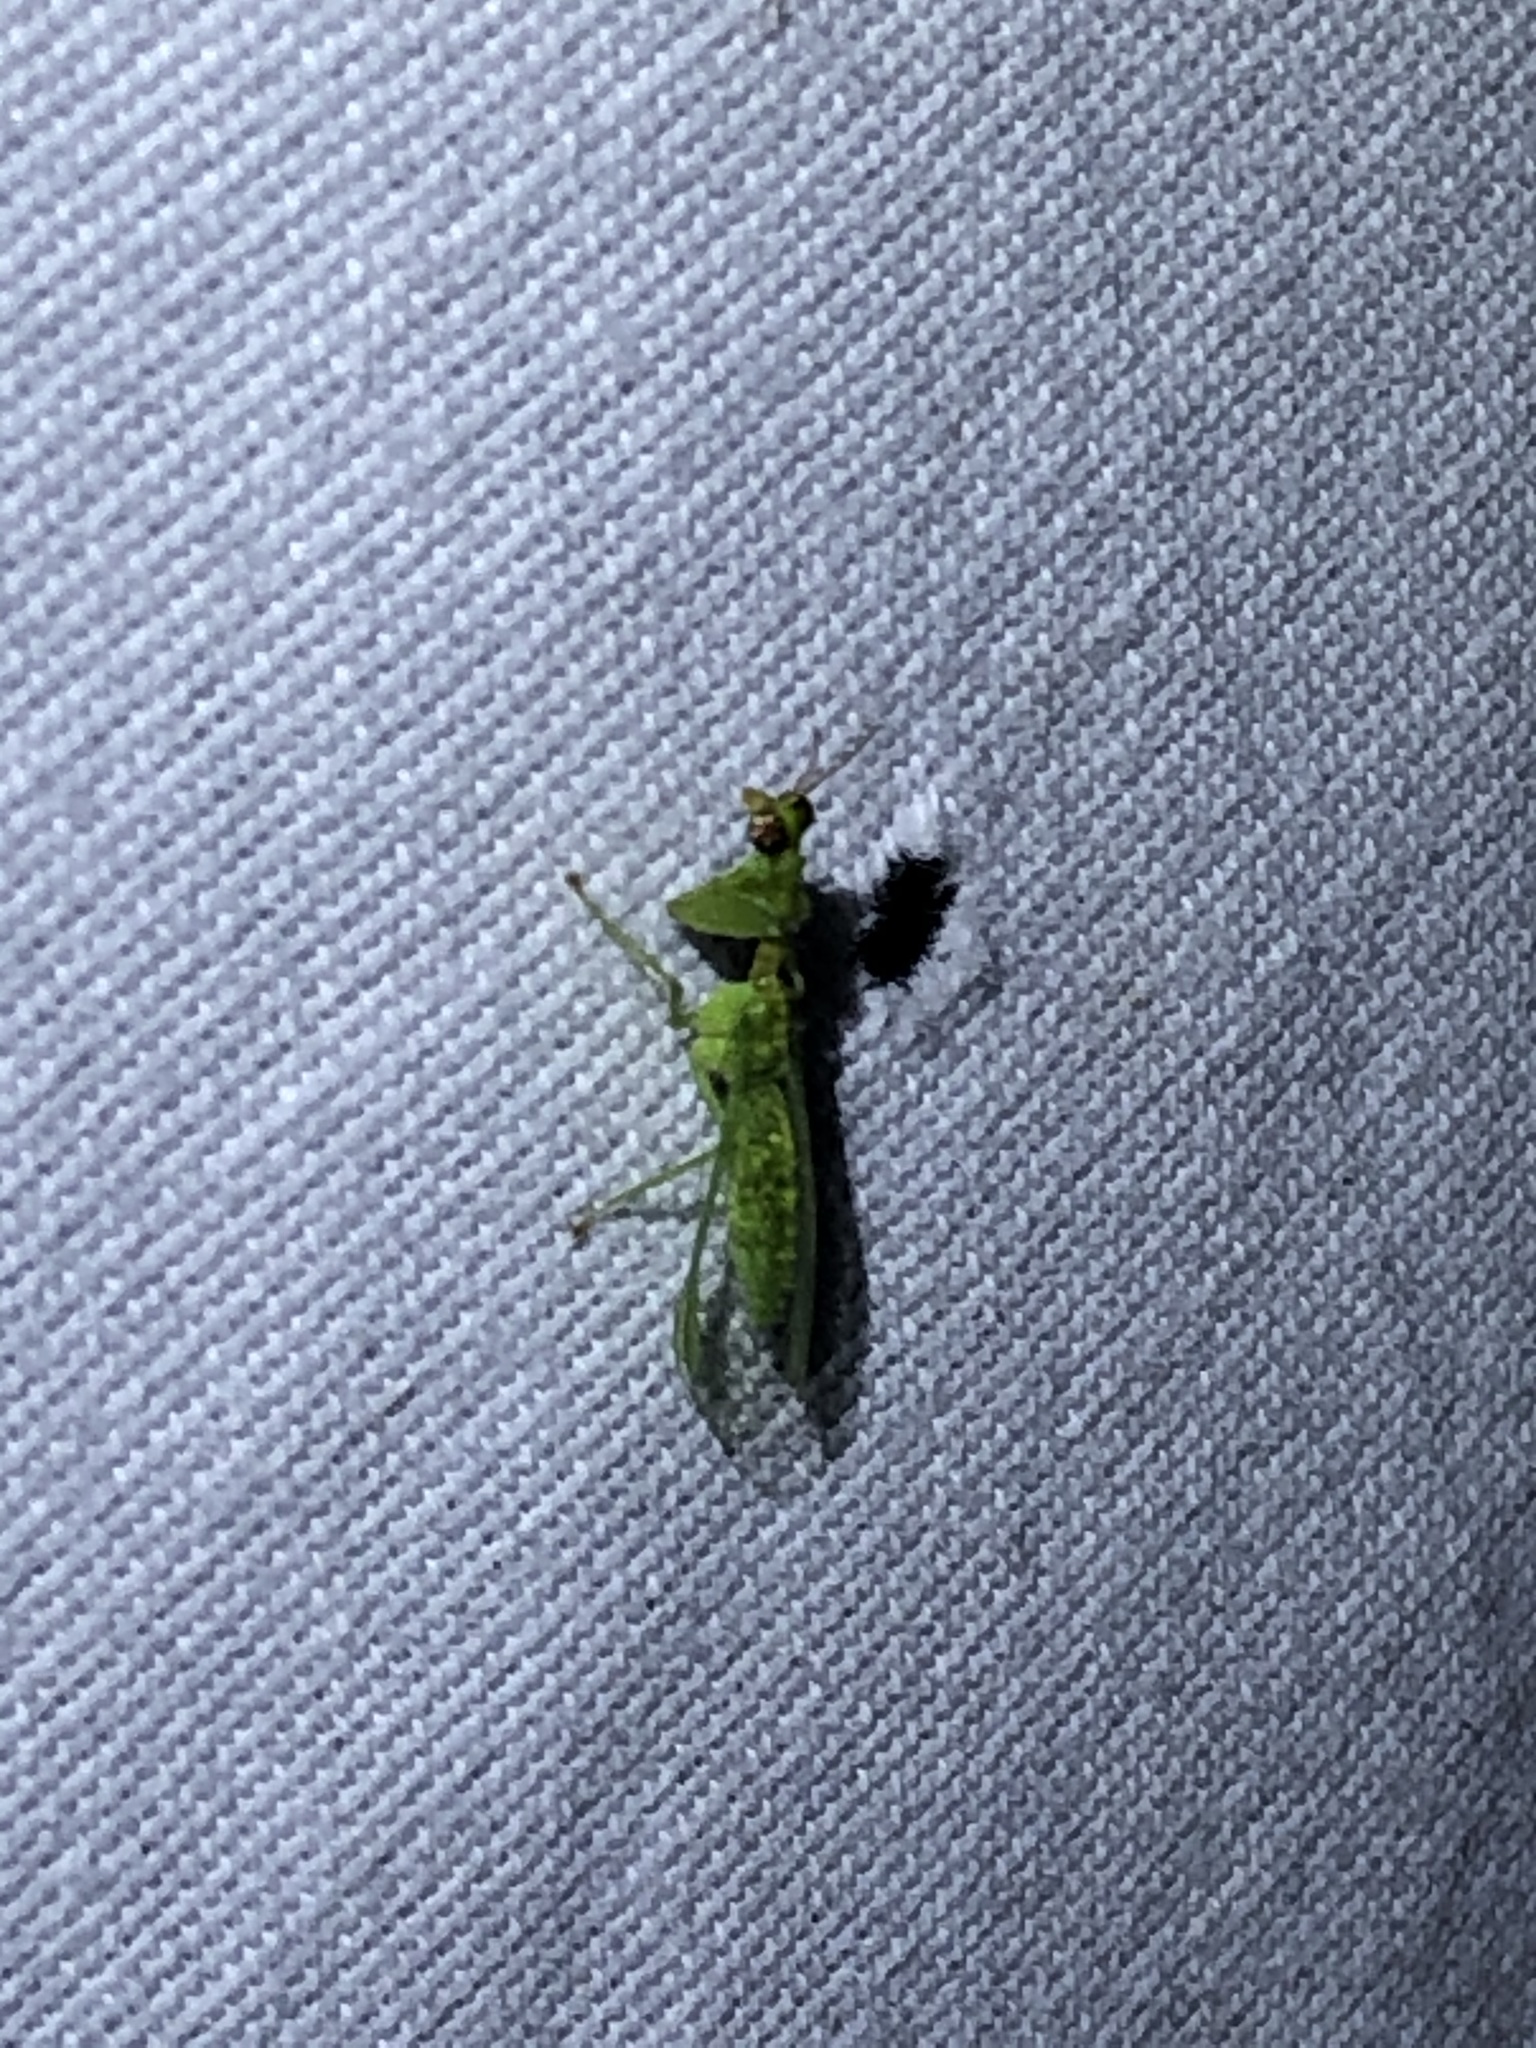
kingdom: Animalia
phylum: Arthropoda
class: Insecta
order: Neuroptera
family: Mantispidae
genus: Zeugomantispa
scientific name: Zeugomantispa minuta
